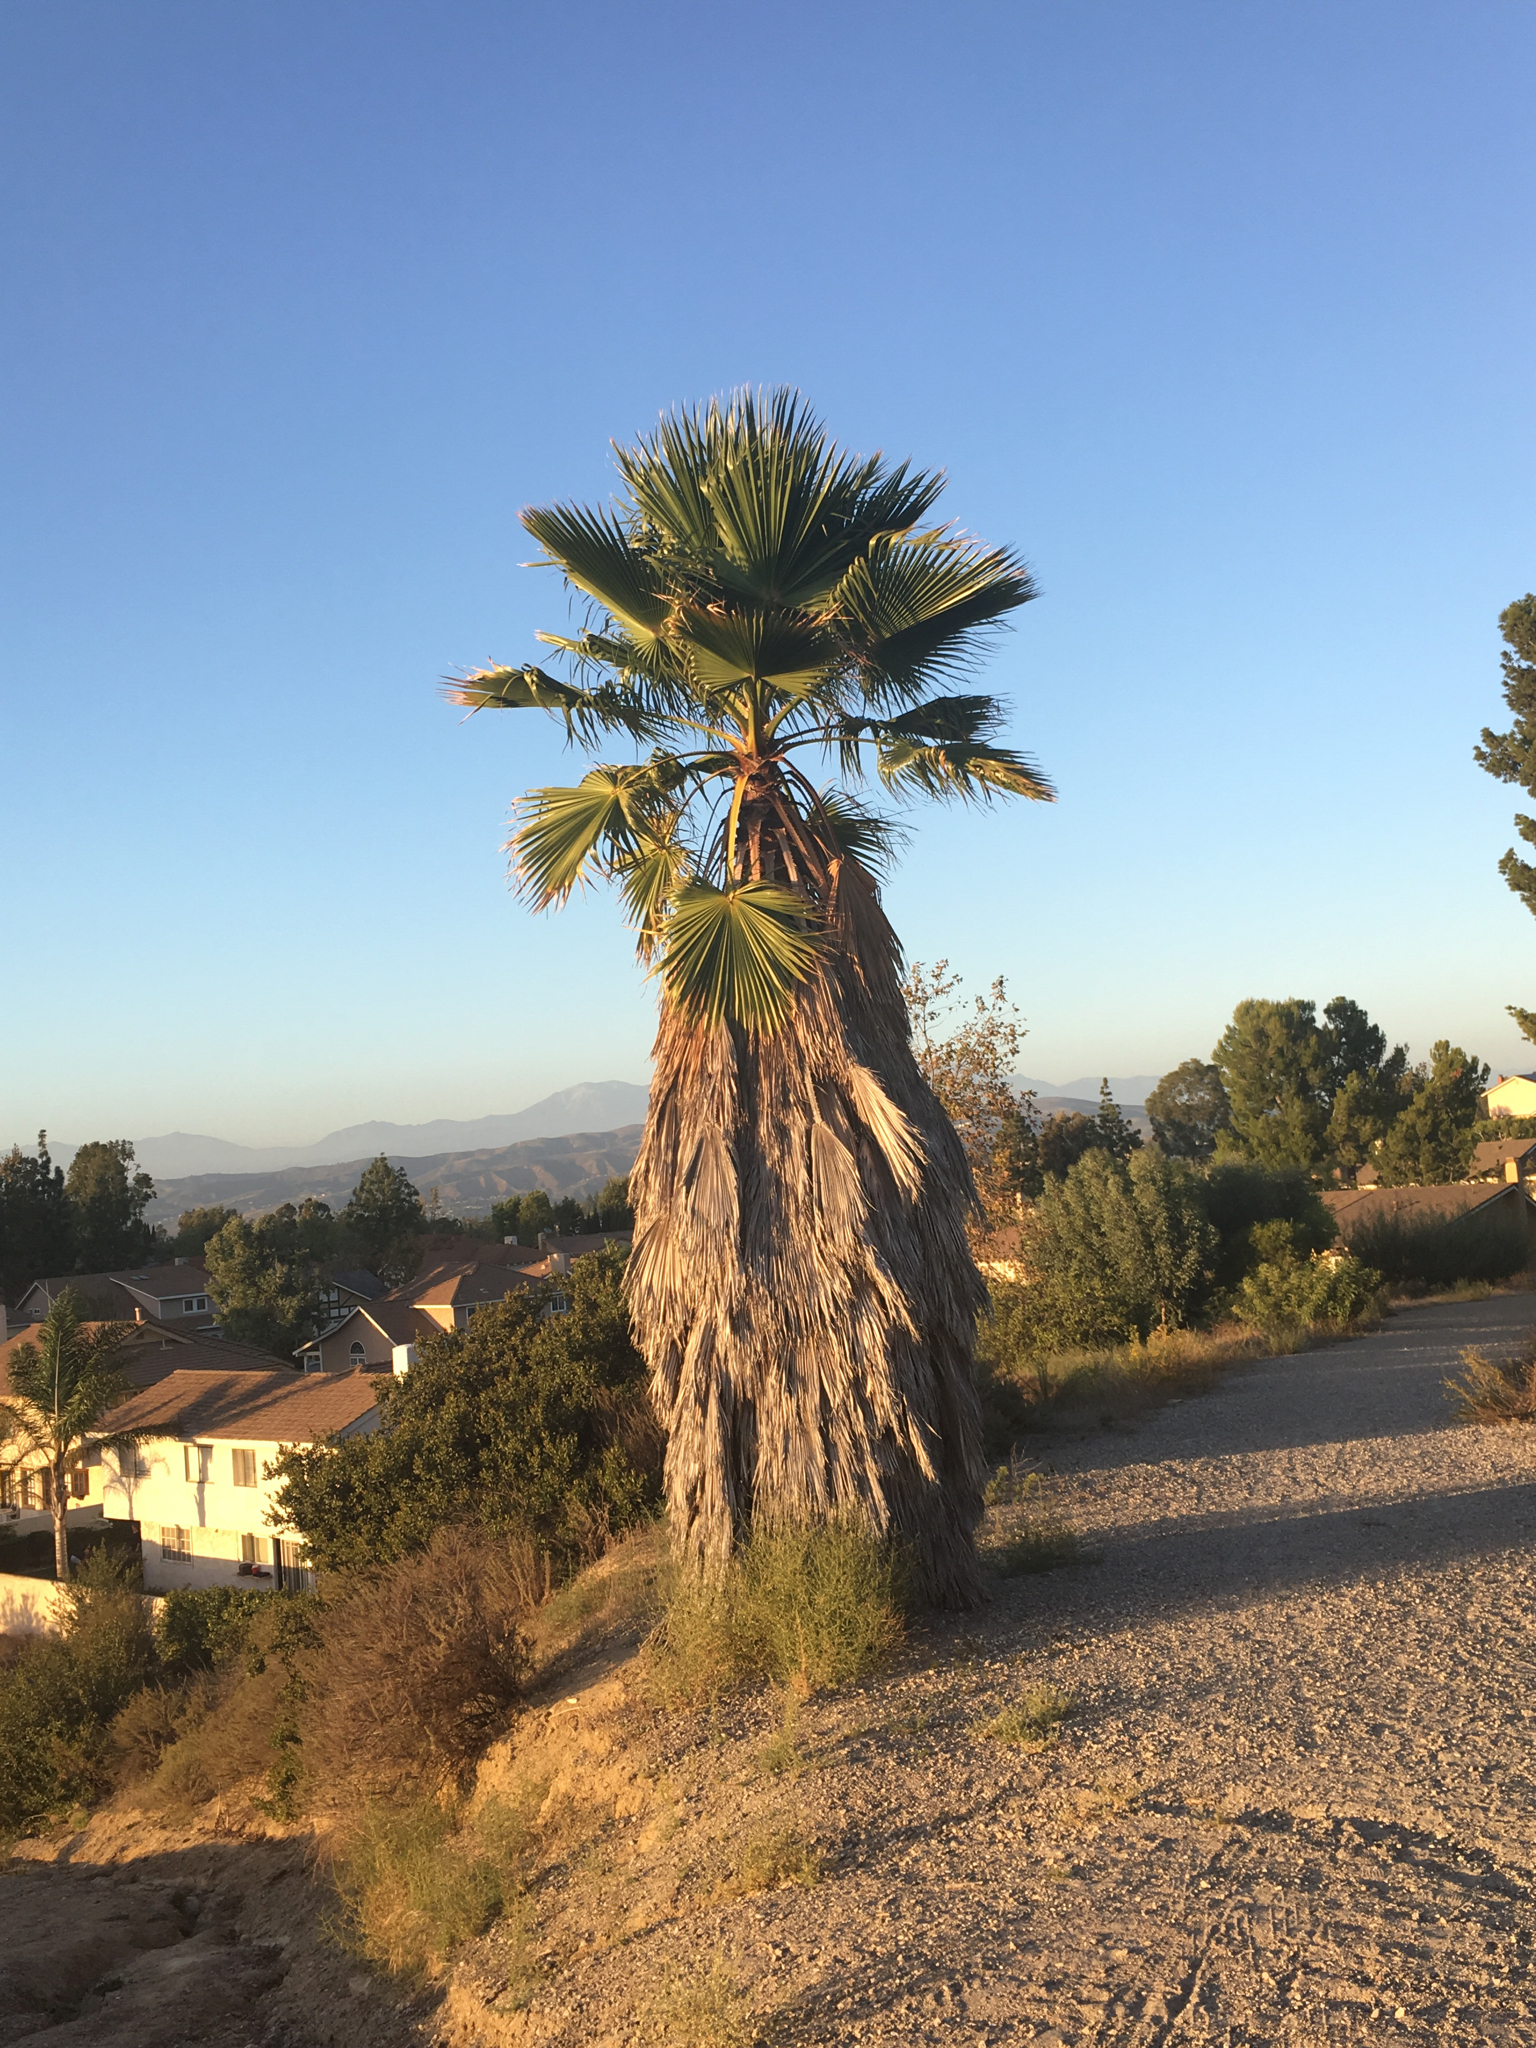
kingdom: Plantae
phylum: Tracheophyta
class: Liliopsida
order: Arecales
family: Arecaceae
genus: Washingtonia
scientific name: Washingtonia robusta
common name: Mexican fan palm
